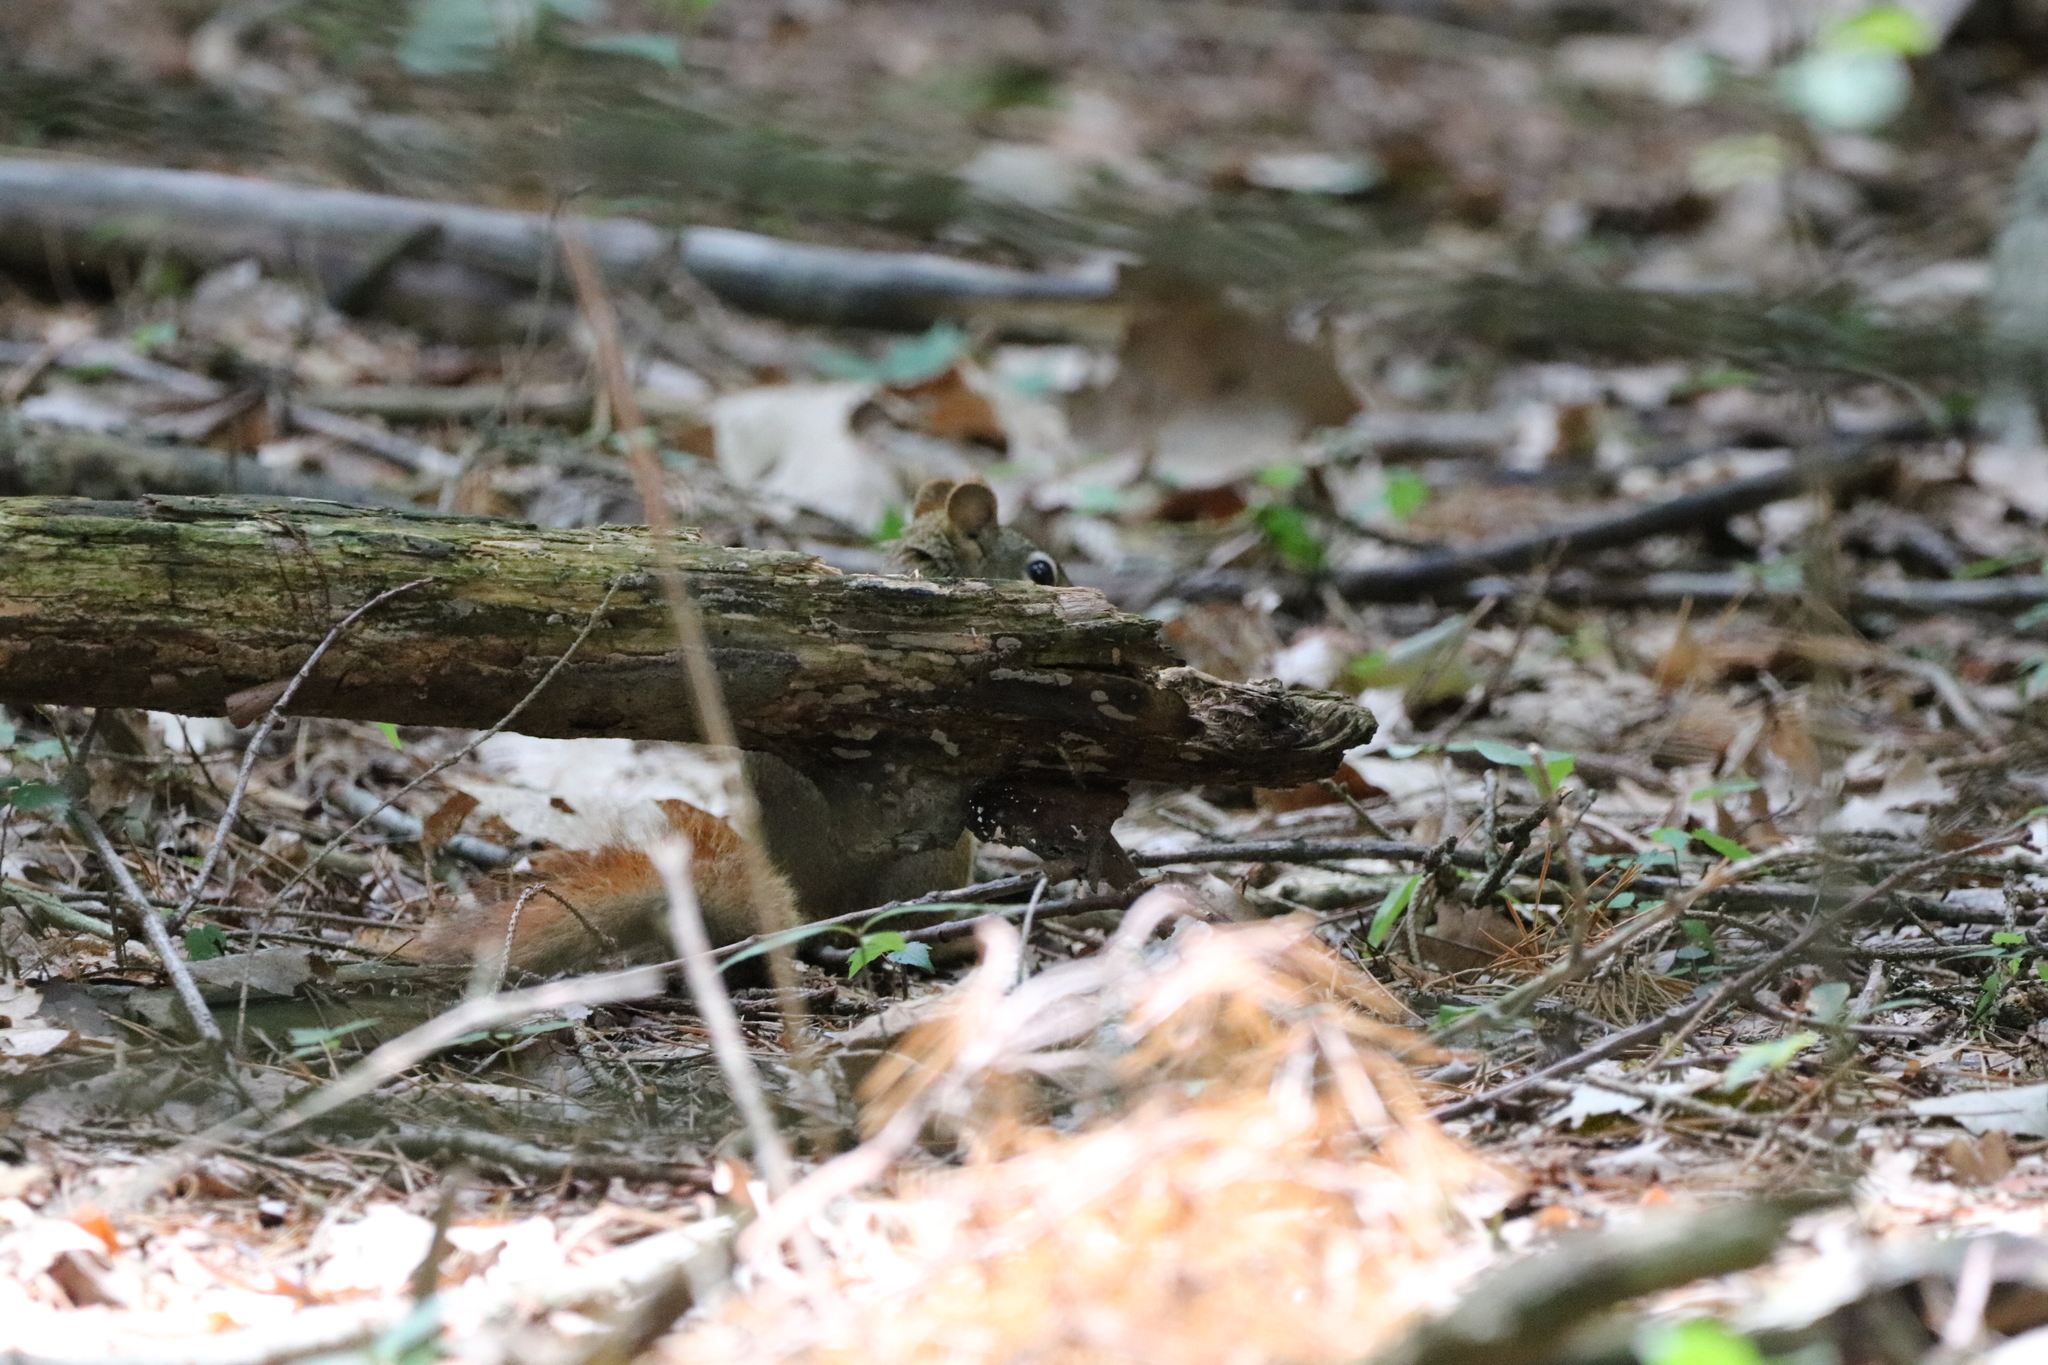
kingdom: Animalia
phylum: Chordata
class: Mammalia
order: Rodentia
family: Sciuridae
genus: Tamiasciurus
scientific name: Tamiasciurus hudsonicus
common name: Red squirrel
